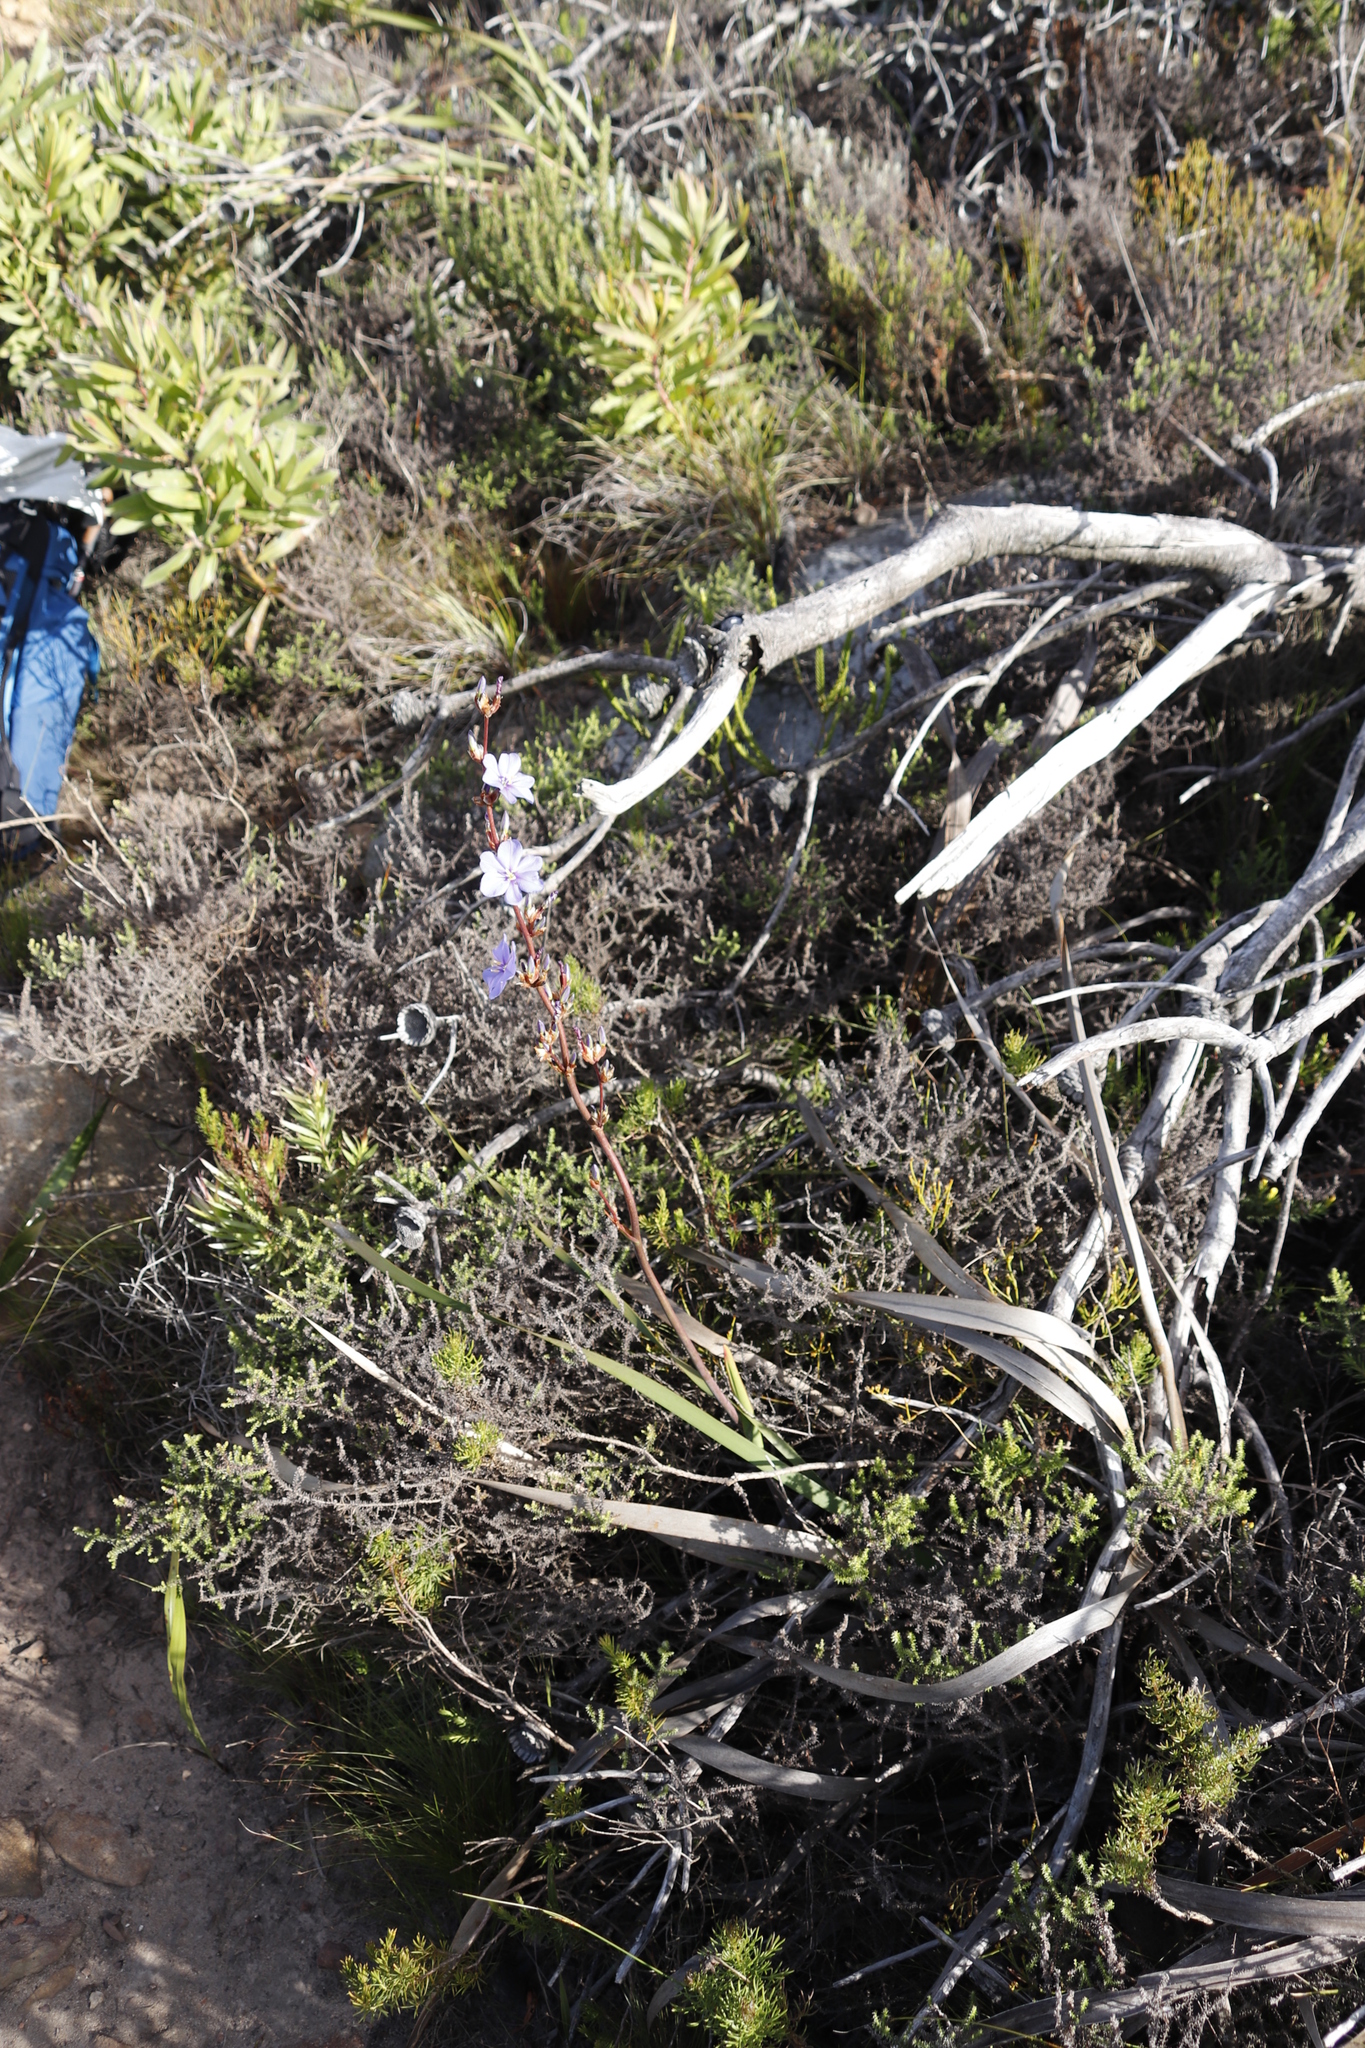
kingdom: Plantae
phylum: Tracheophyta
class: Liliopsida
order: Asparagales
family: Iridaceae
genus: Aristea
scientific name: Aristea bakeri
